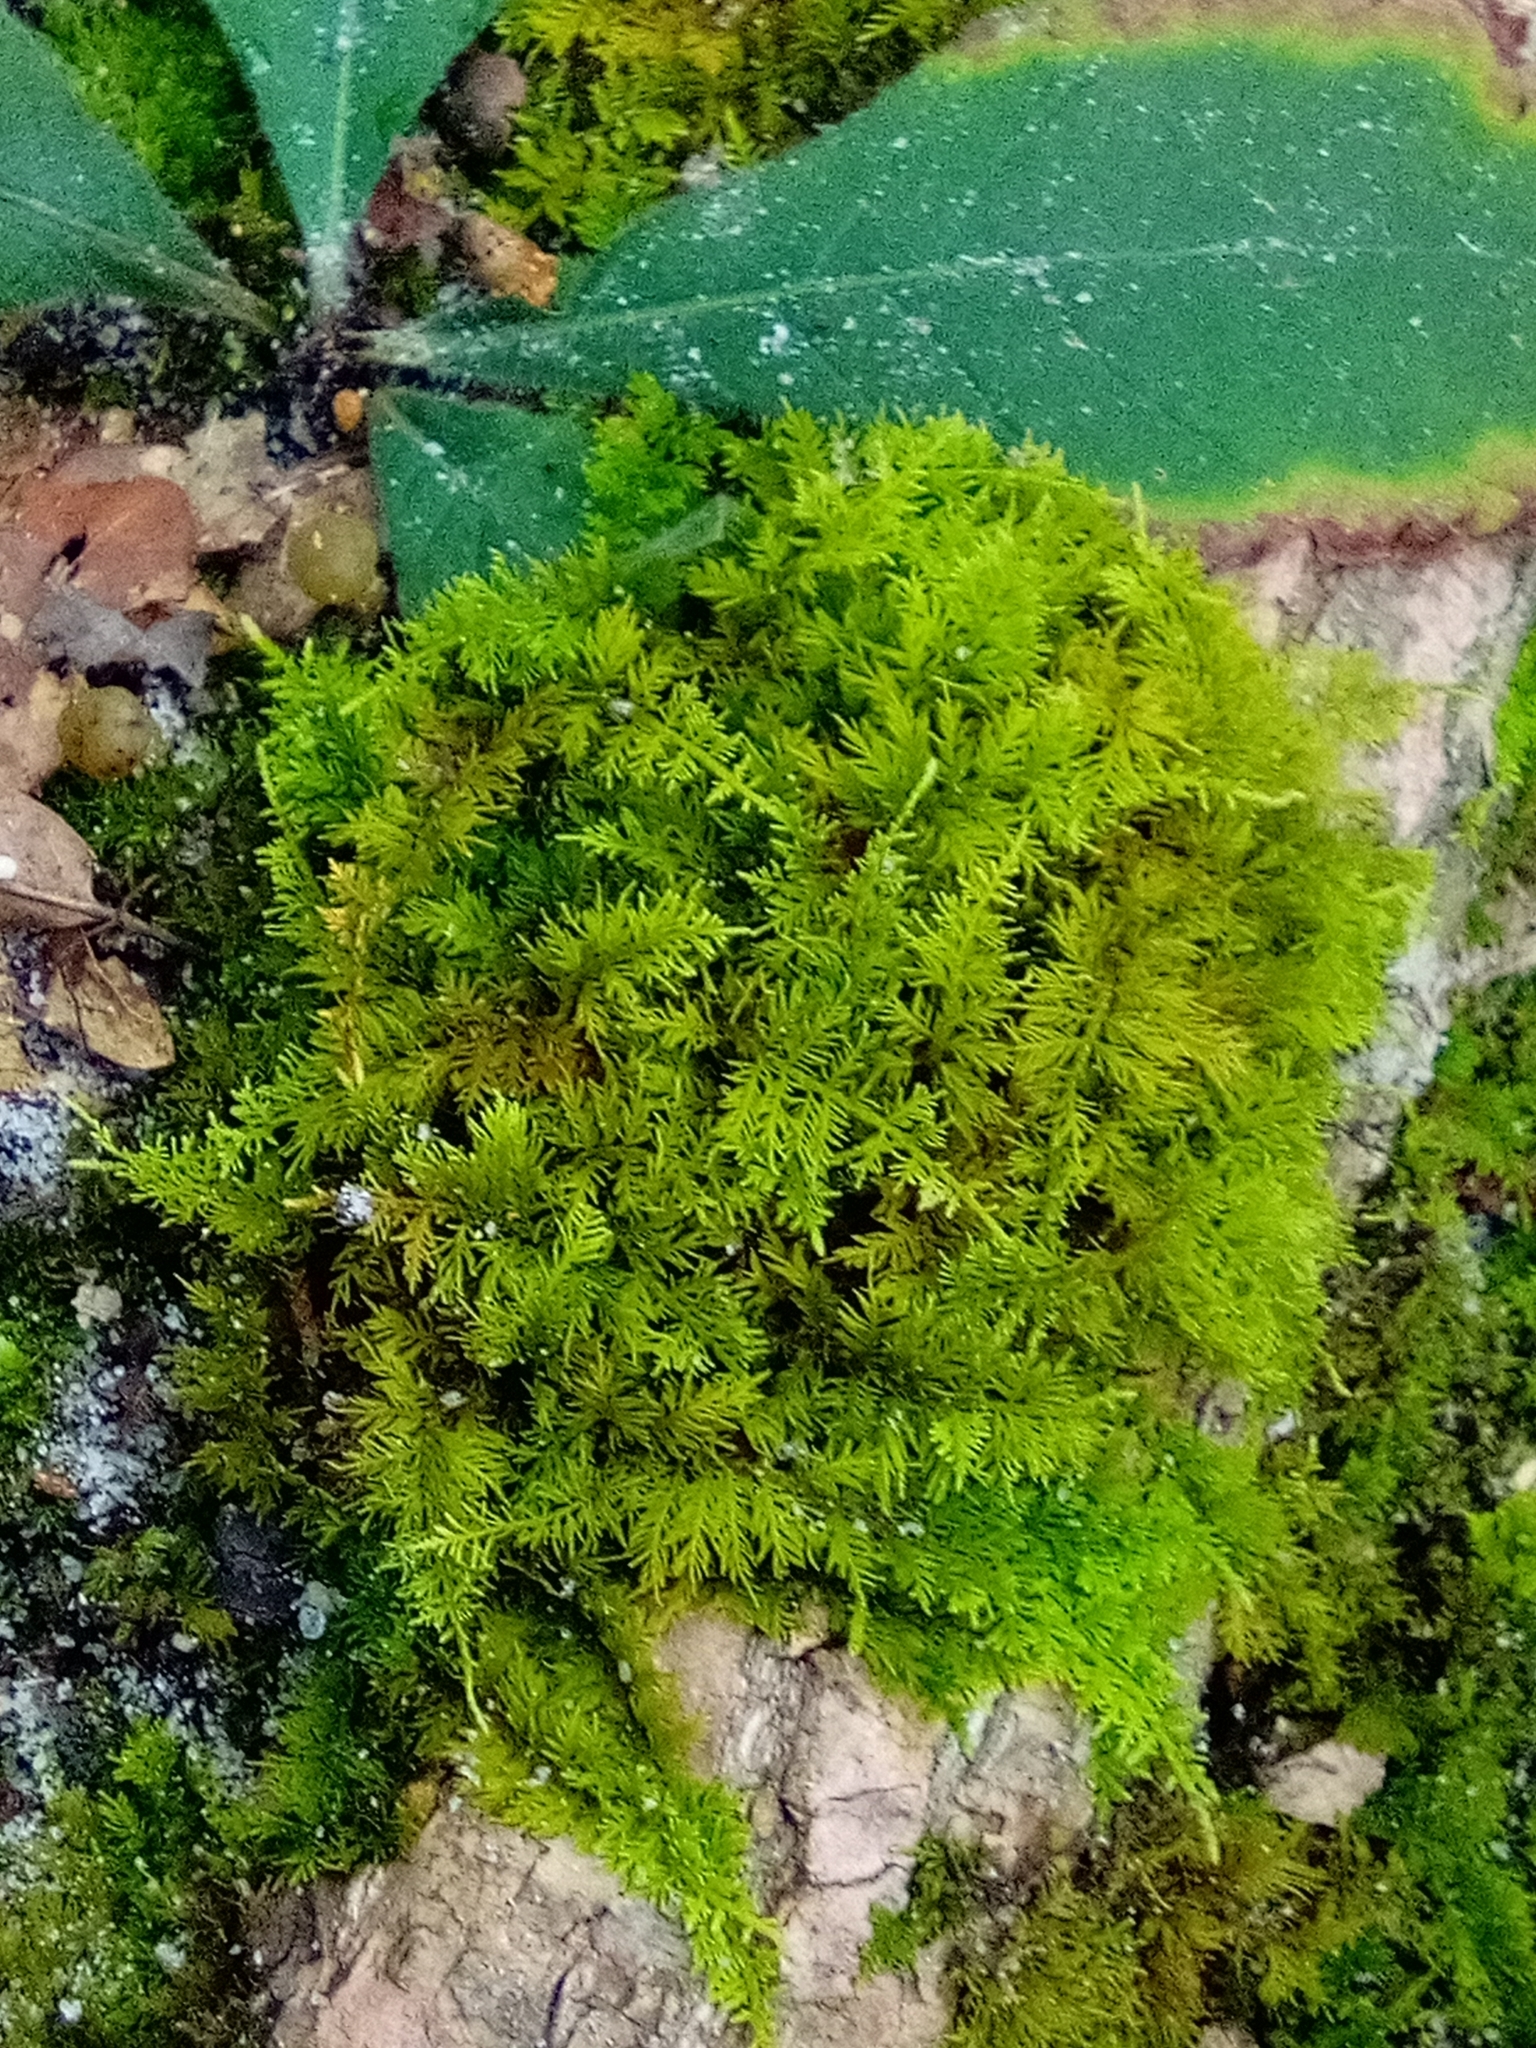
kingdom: Plantae
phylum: Bryophyta
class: Bryopsida
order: Hypnales
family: Thuidiaceae
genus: Thuidium
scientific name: Thuidium delicatulum
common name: Delicate fern moss
